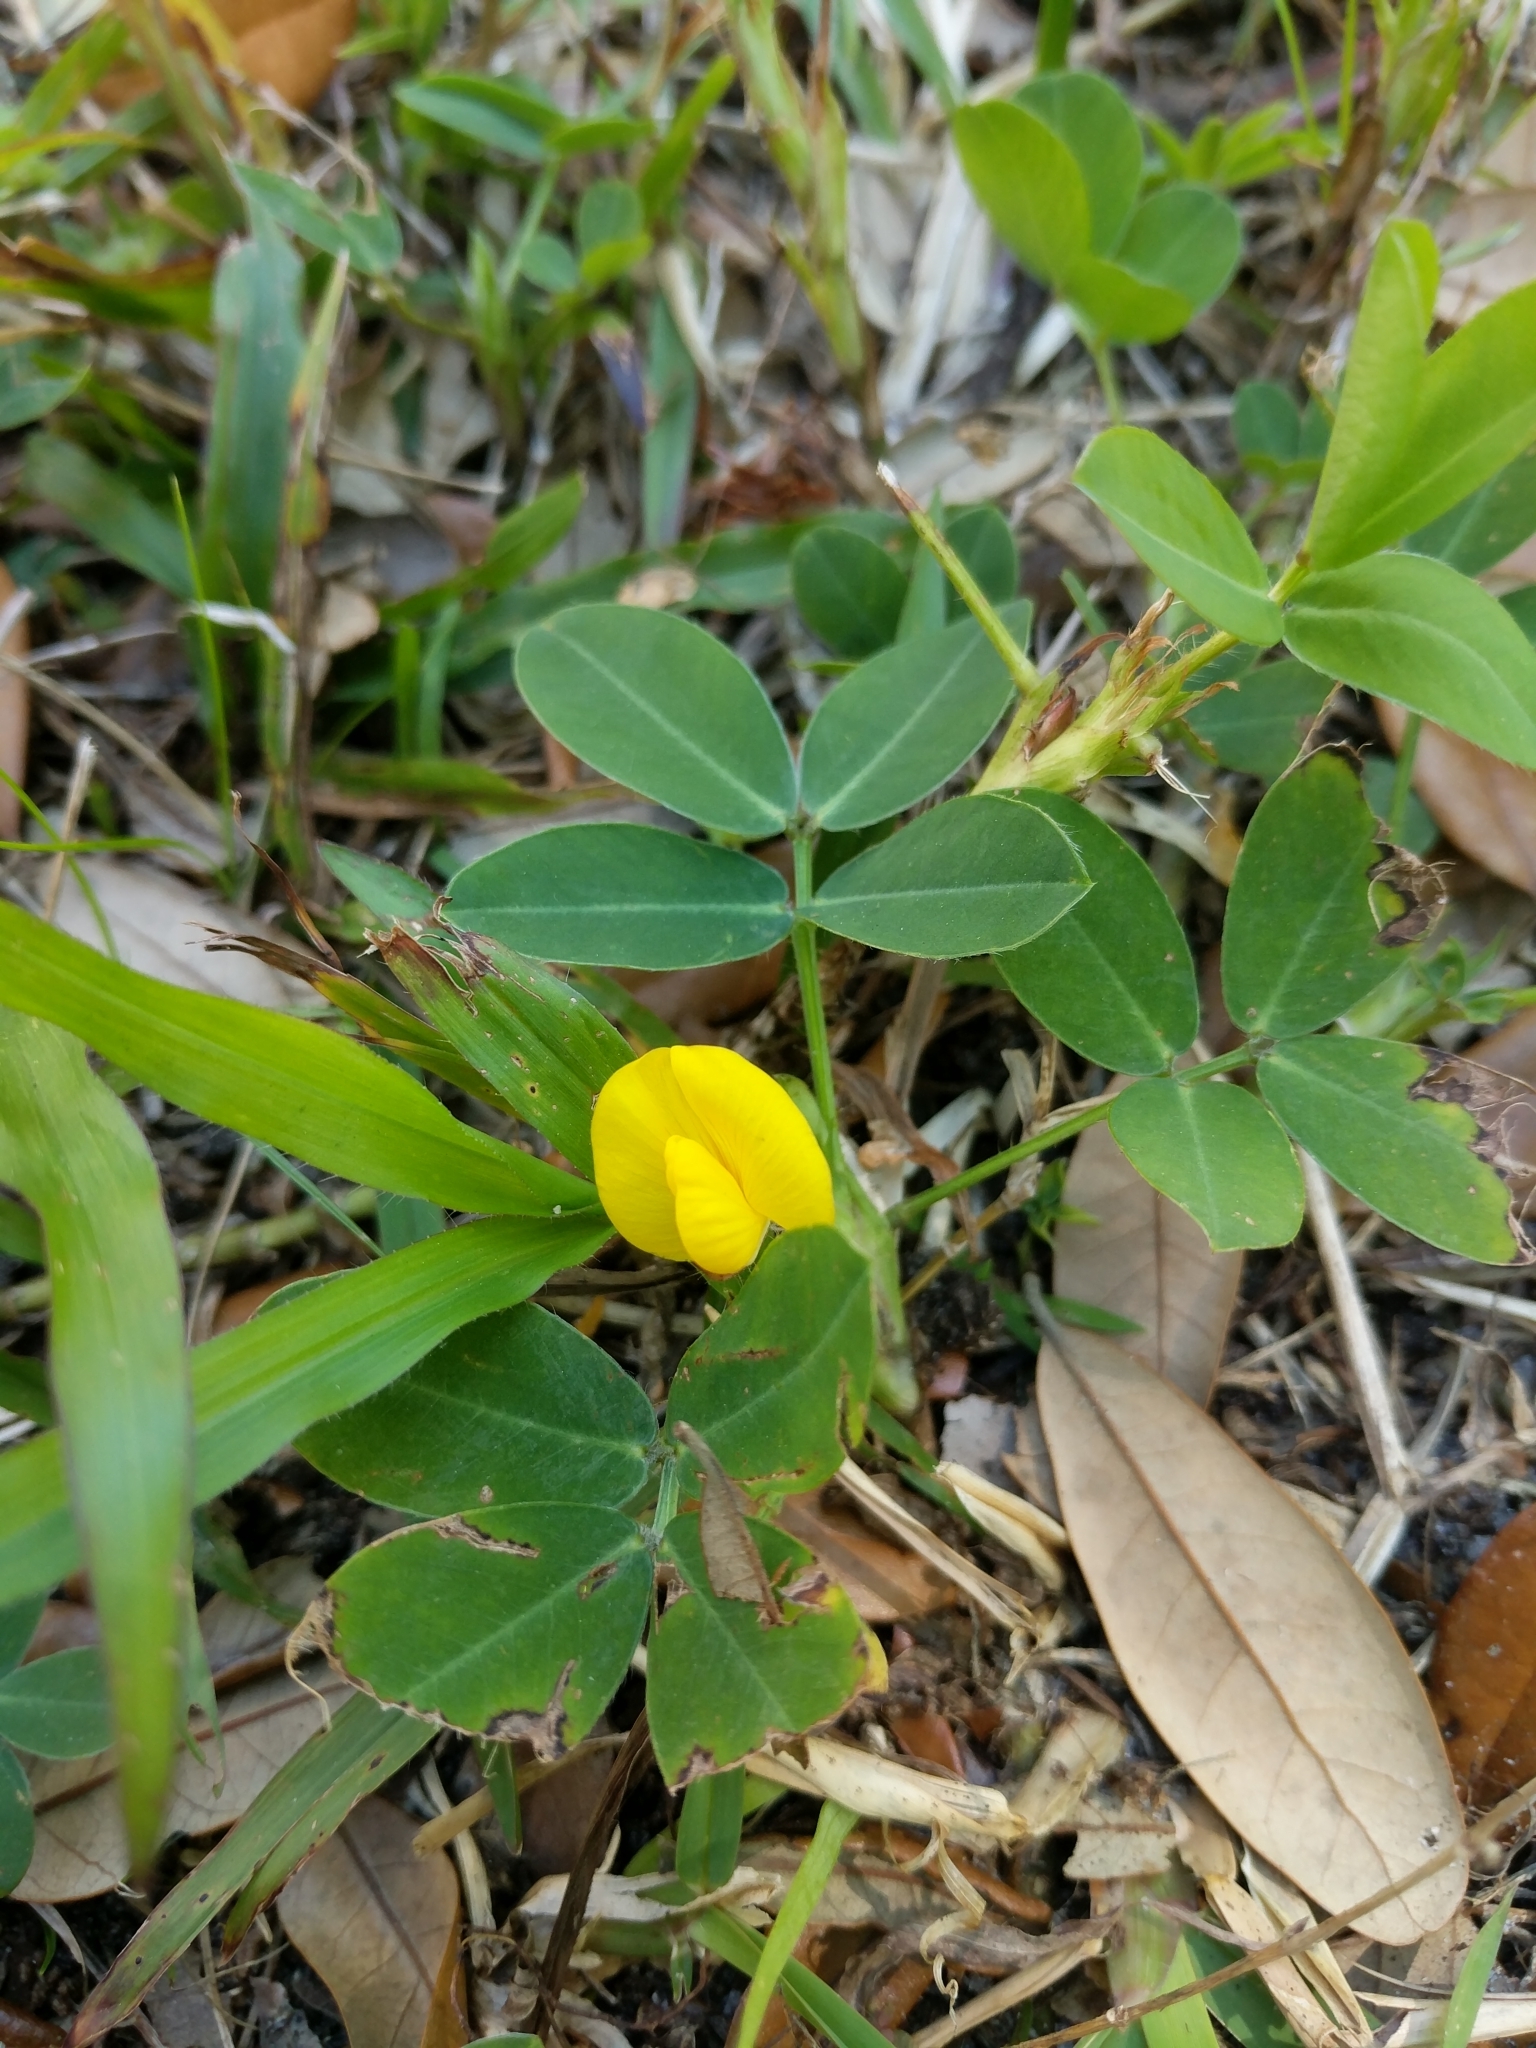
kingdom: Plantae
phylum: Tracheophyta
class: Magnoliopsida
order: Fabales
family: Fabaceae
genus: Arachis
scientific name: Arachis pintoi
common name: Pinto peanut
